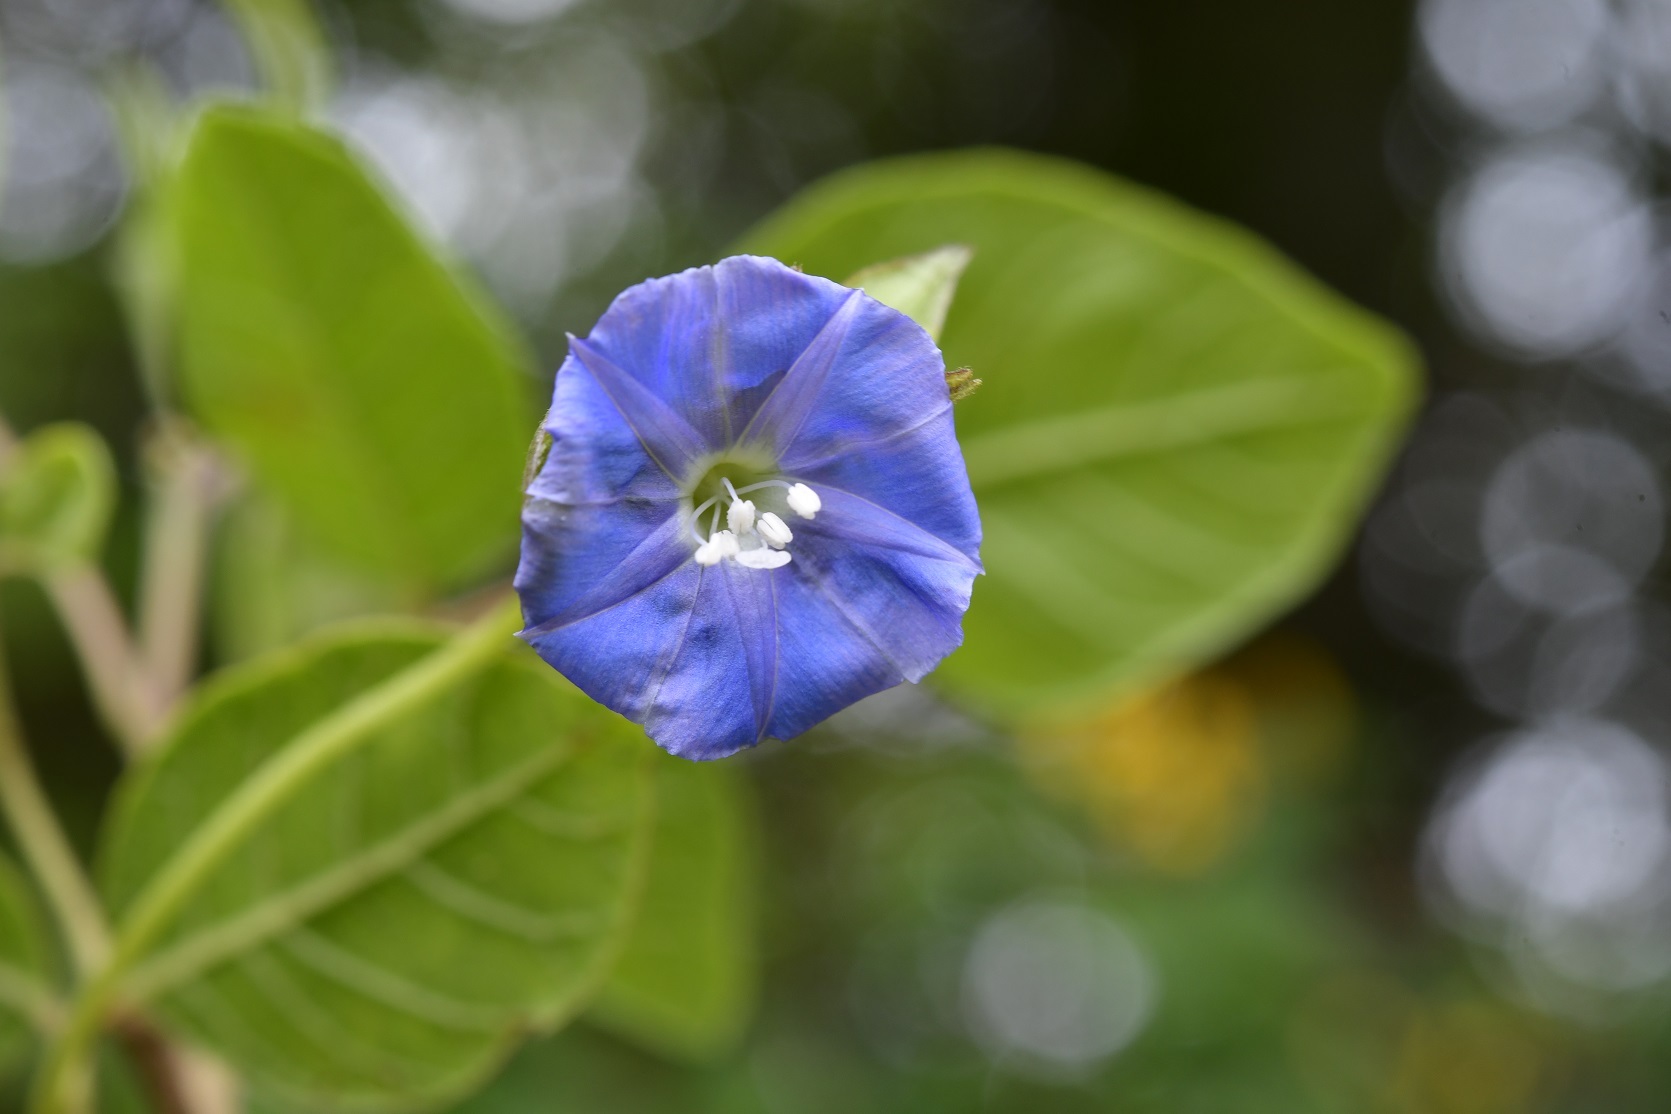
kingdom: Plantae
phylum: Tracheophyta
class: Magnoliopsida
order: Solanales
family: Convolvulaceae
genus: Jacquemontia
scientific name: Jacquemontia pentanthos
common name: Skyblue clustervine
